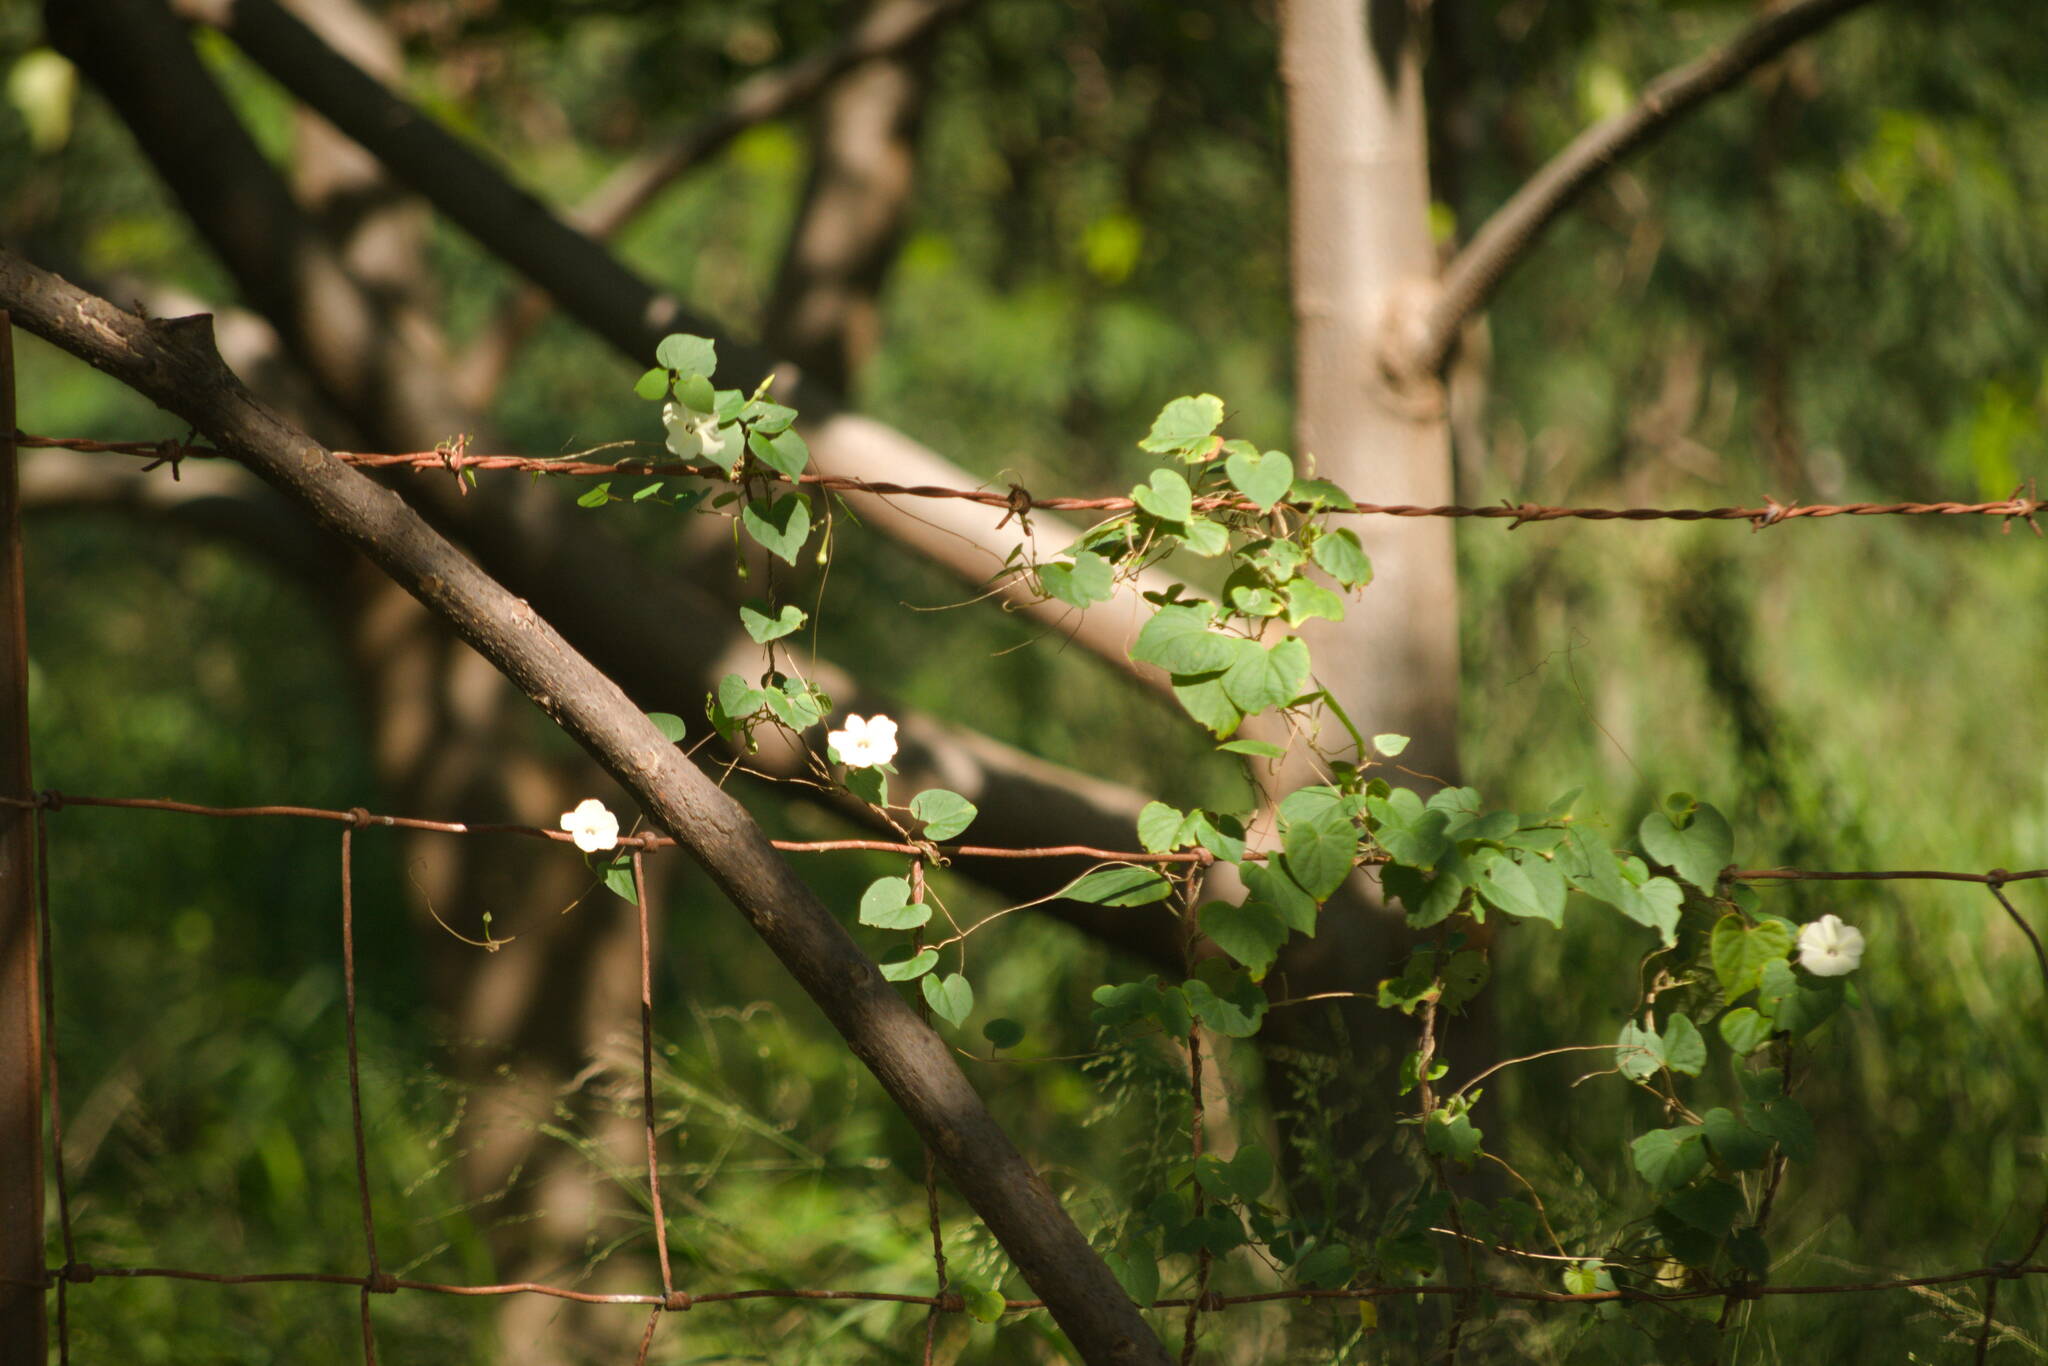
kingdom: Plantae
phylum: Tracheophyta
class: Magnoliopsida
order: Solanales
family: Convolvulaceae
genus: Ipomoea
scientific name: Ipomoea obscura
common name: Obscure morning-glory
